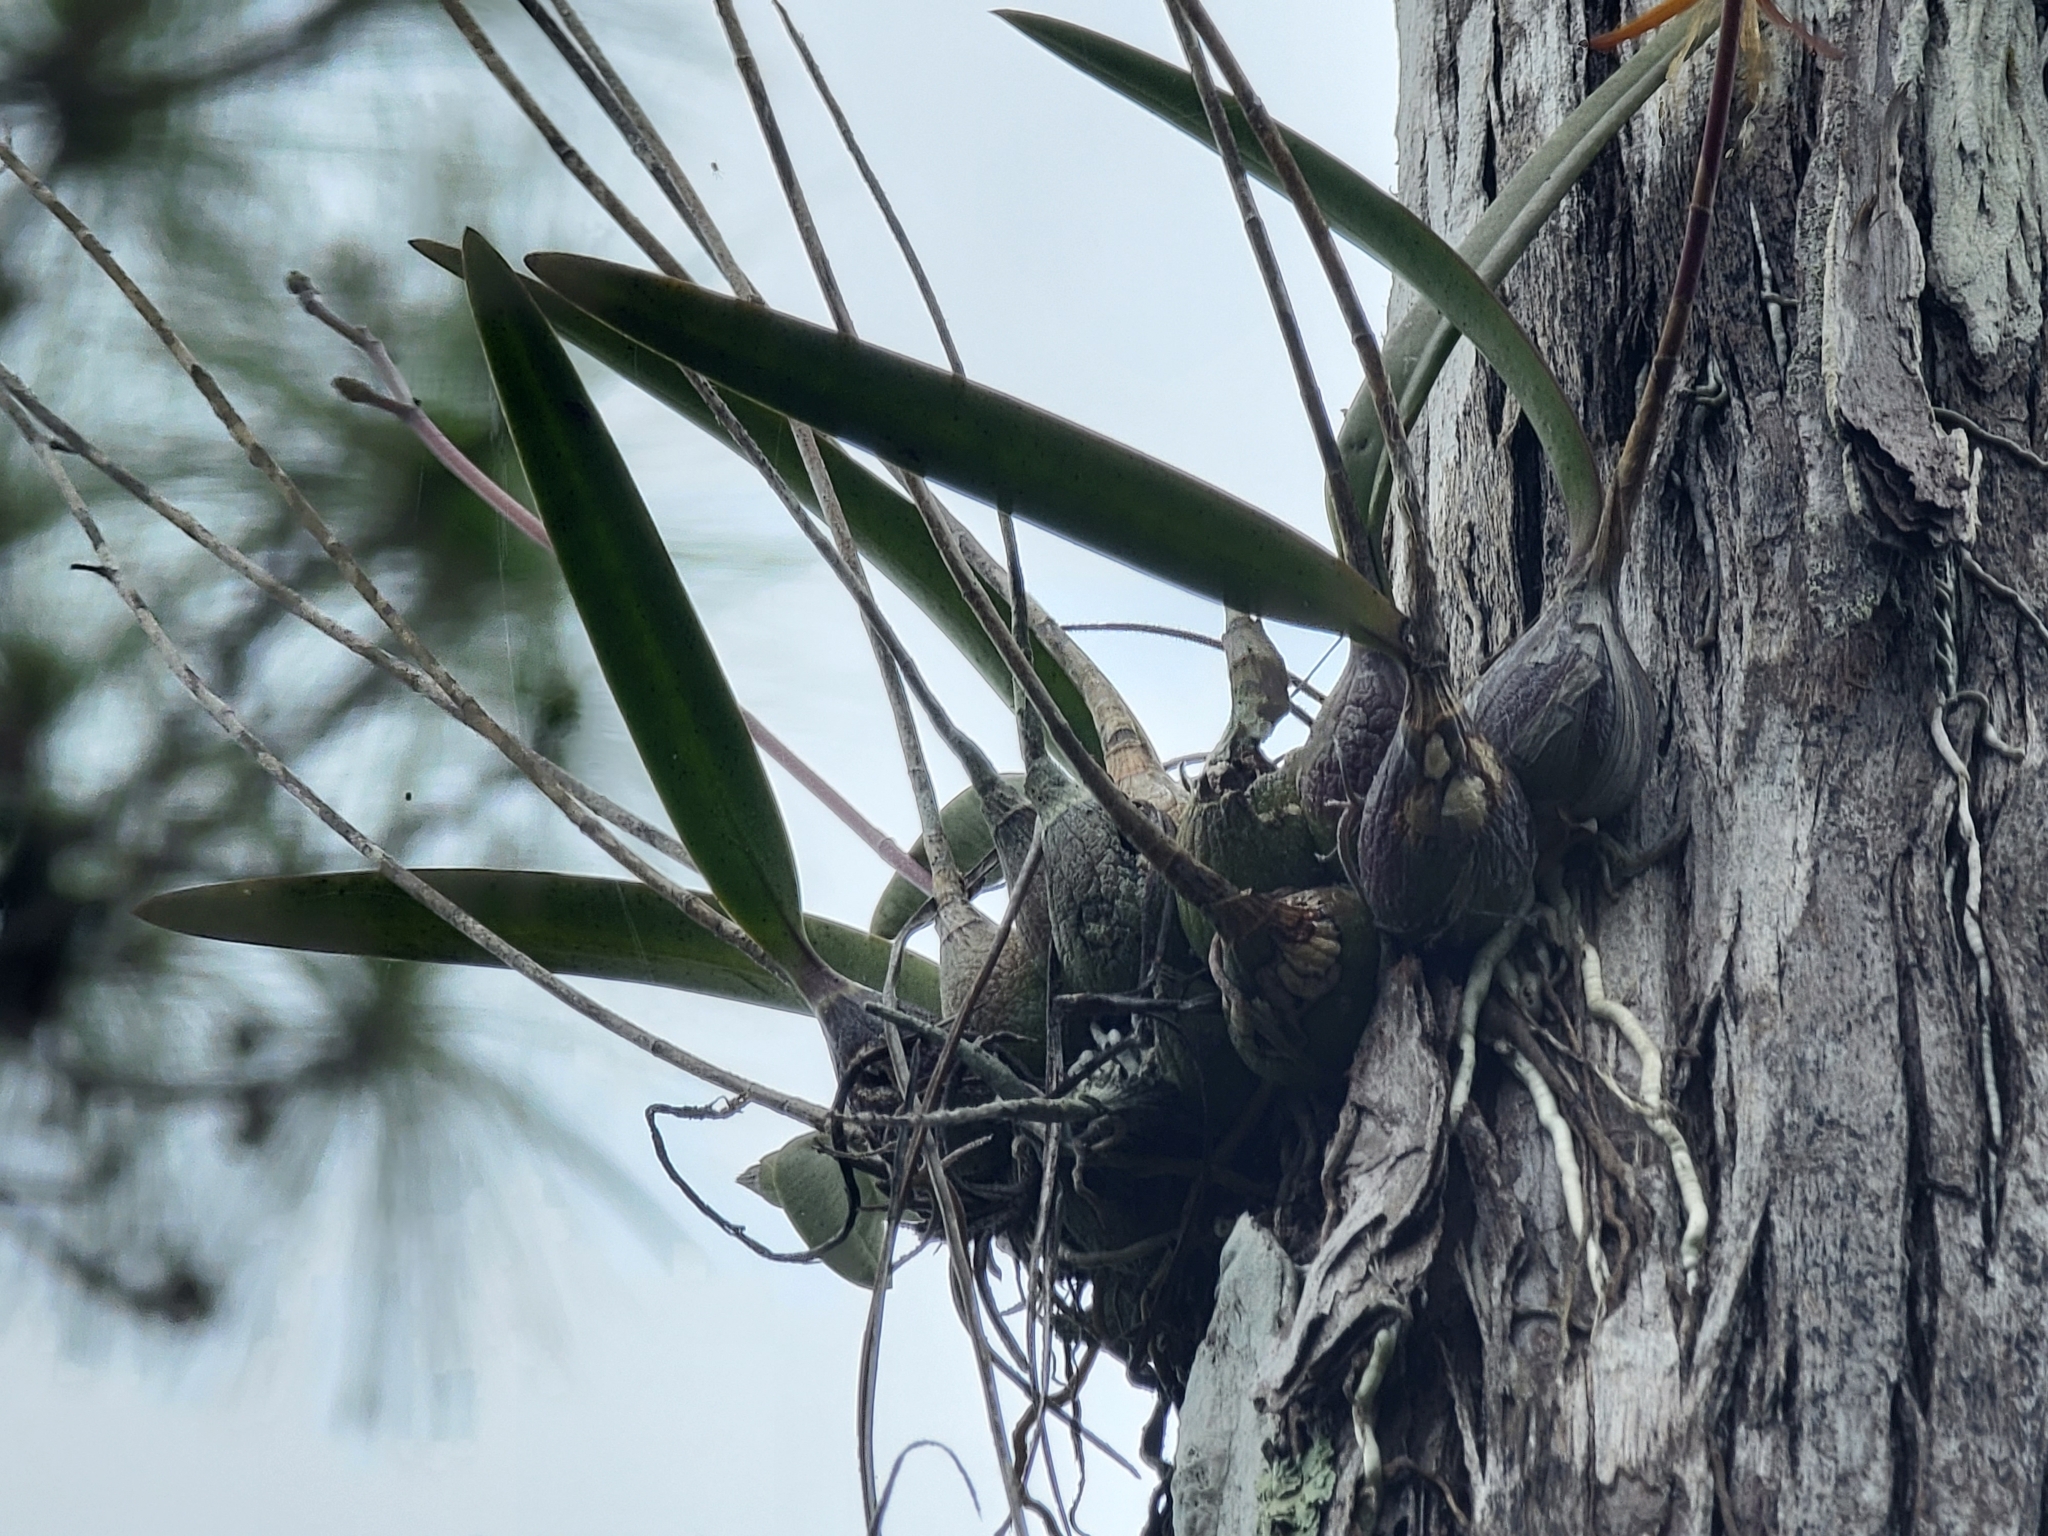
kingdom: Plantae
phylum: Tracheophyta
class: Liliopsida
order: Asparagales
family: Orchidaceae
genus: Encyclia
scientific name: Encyclia tampensis
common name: Florida butterfly orchid
